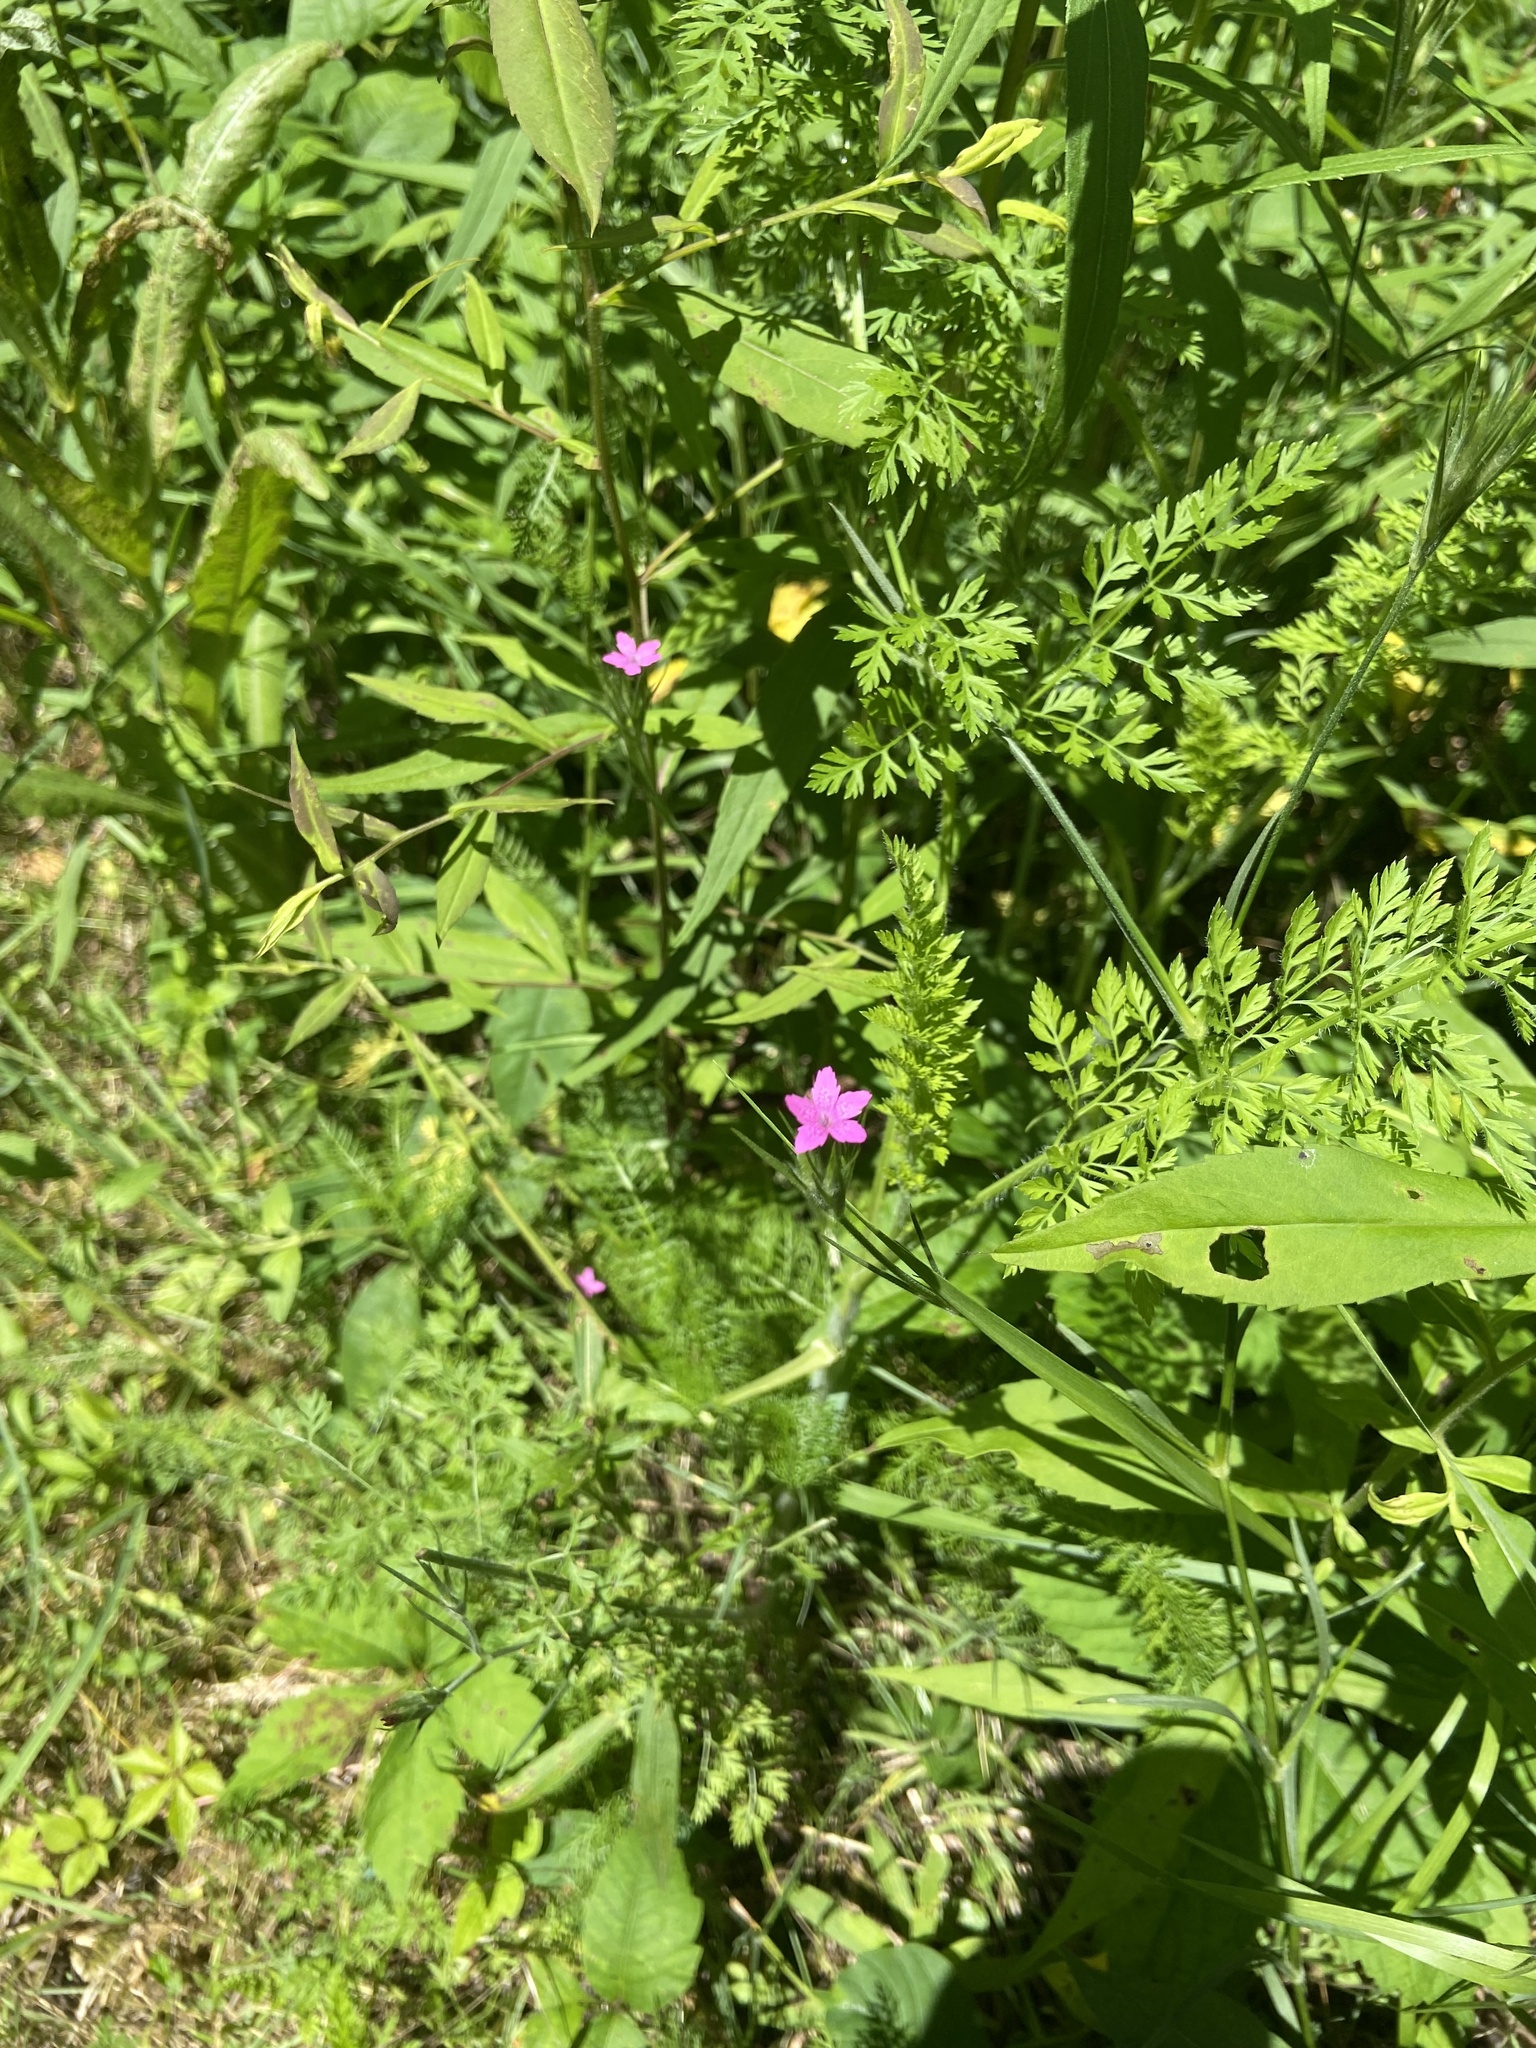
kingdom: Plantae
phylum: Tracheophyta
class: Magnoliopsida
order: Caryophyllales
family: Caryophyllaceae
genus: Dianthus
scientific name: Dianthus armeria
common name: Deptford pink
